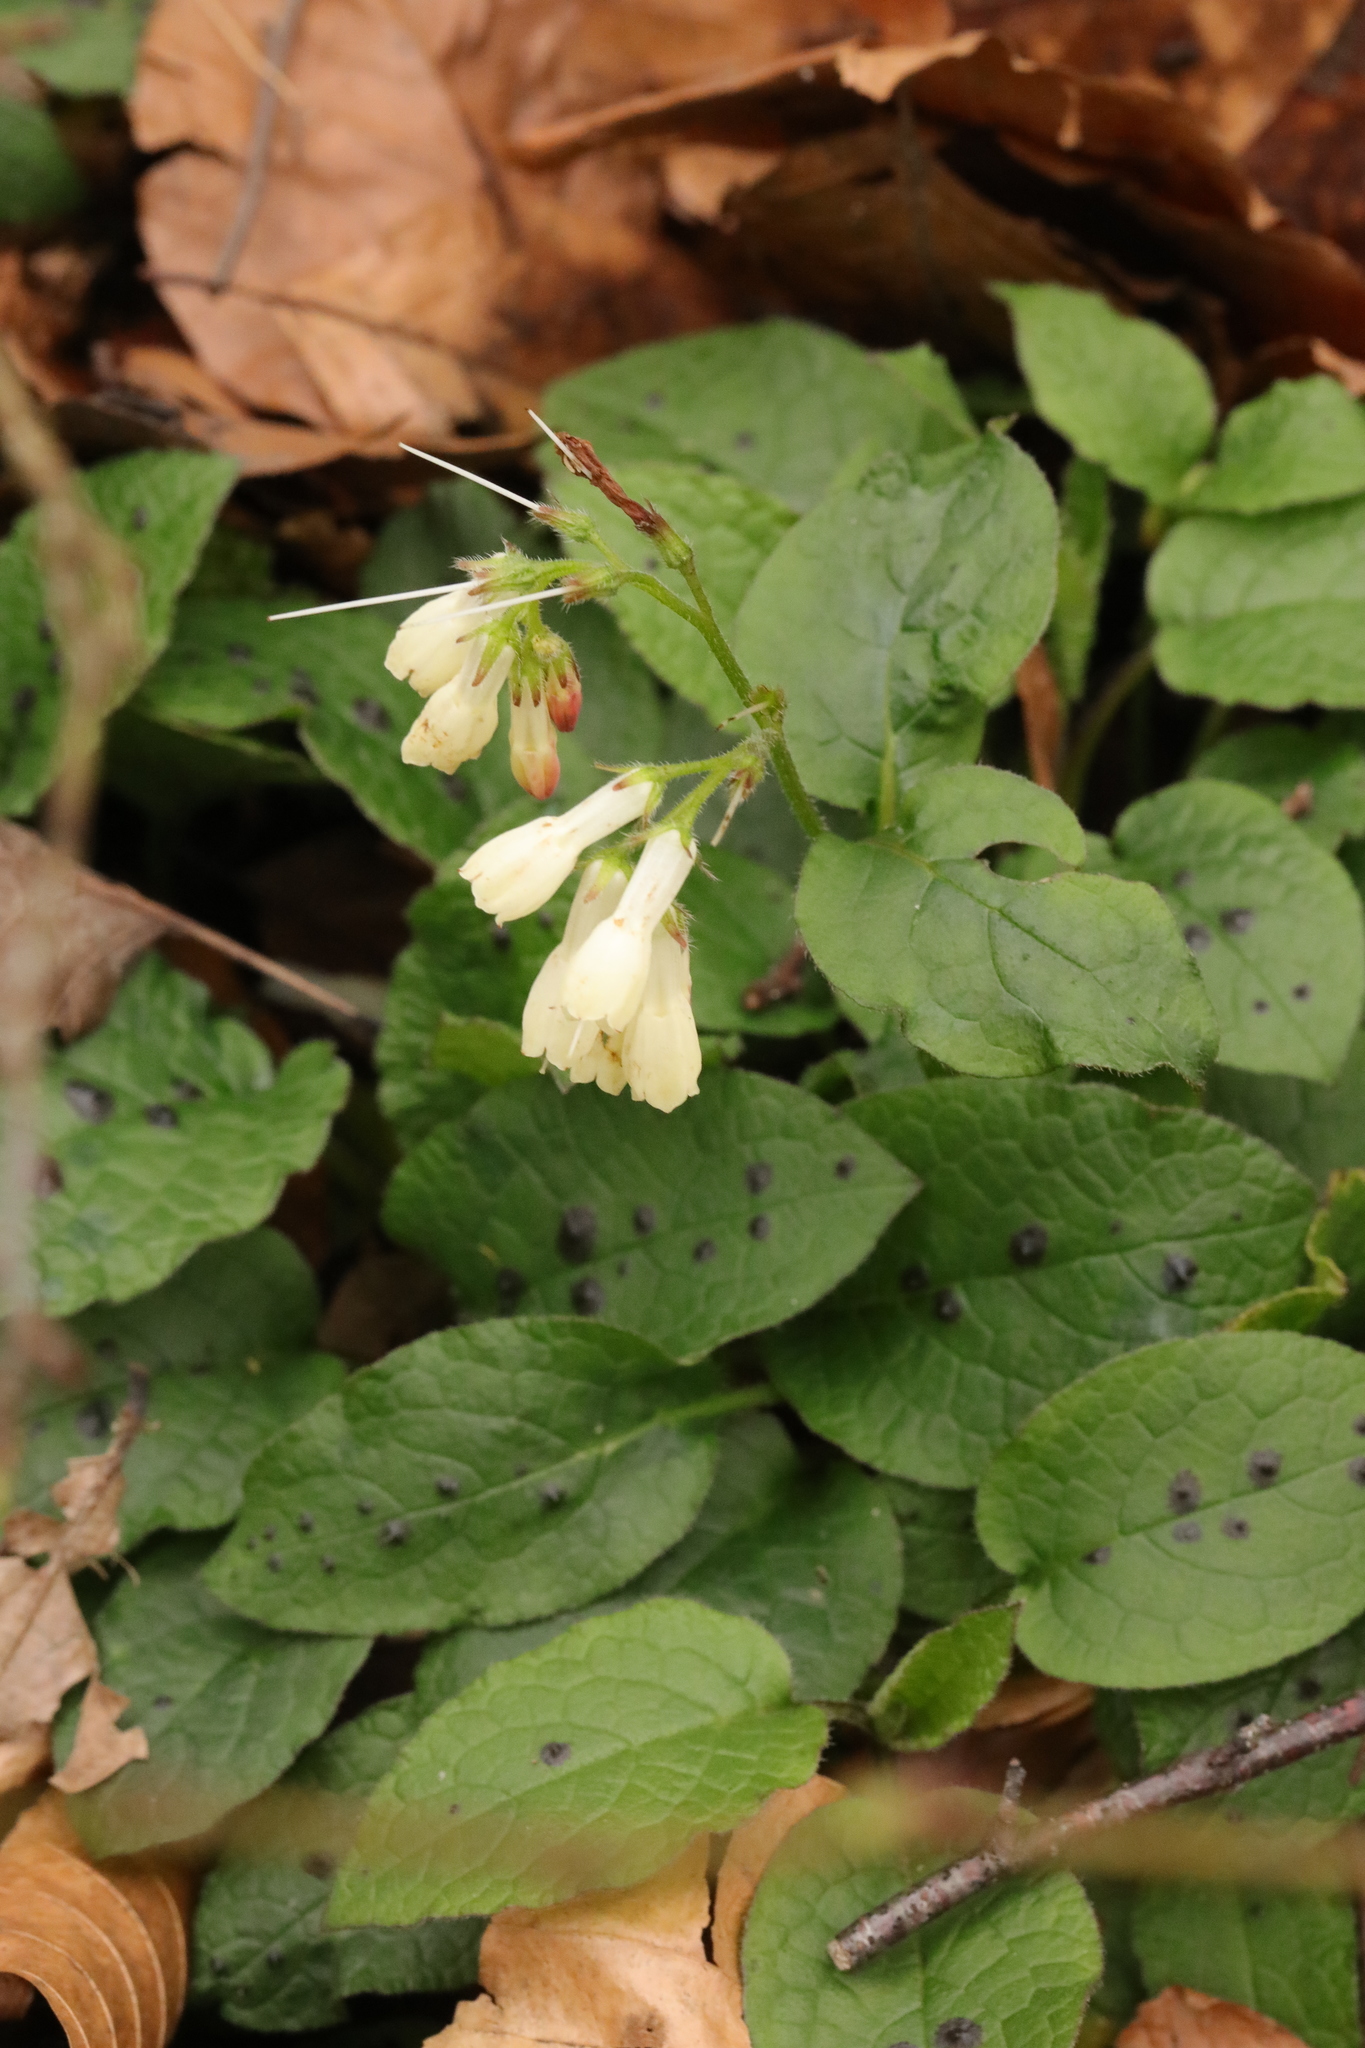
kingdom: Plantae
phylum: Tracheophyta
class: Magnoliopsida
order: Boraginales
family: Boraginaceae
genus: Symphytum
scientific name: Symphytum grandiflorum
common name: Creeping comfrey
